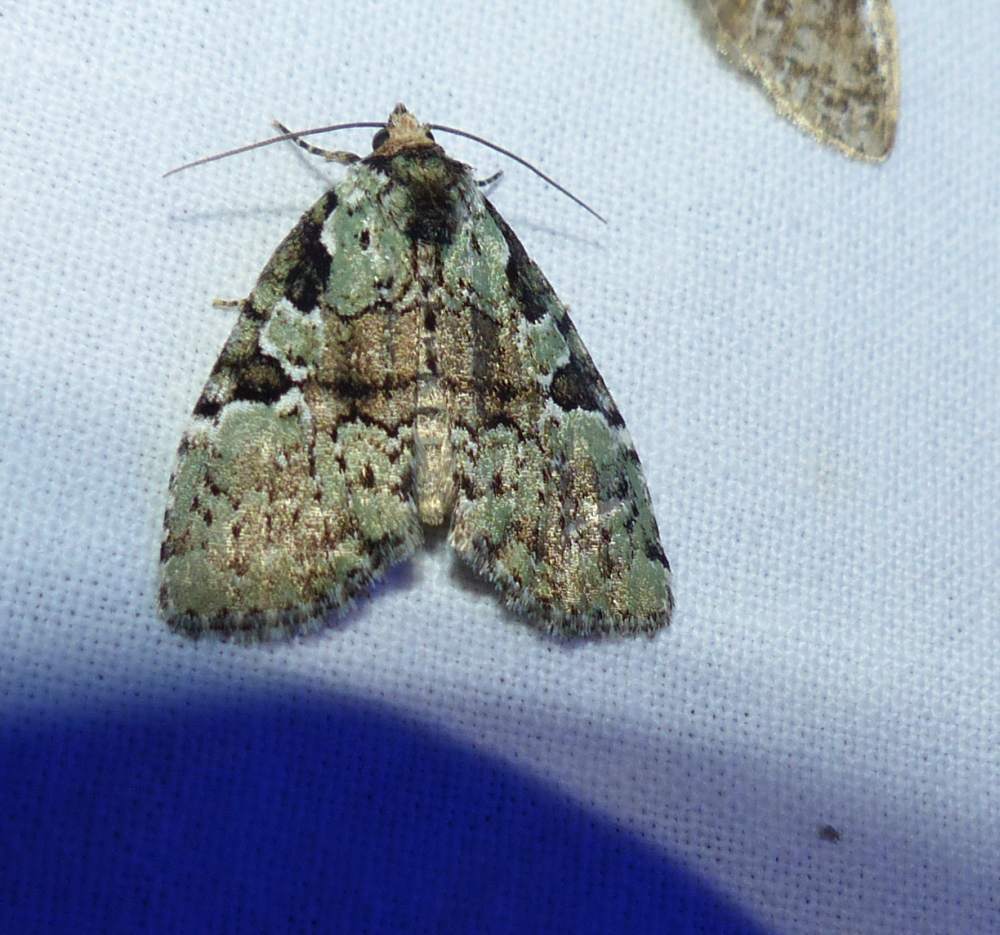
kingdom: Animalia
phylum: Arthropoda
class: Insecta
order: Lepidoptera
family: Noctuidae
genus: Leuconycta
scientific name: Leuconycta lepidula
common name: Marbled-green leuconycta moth
